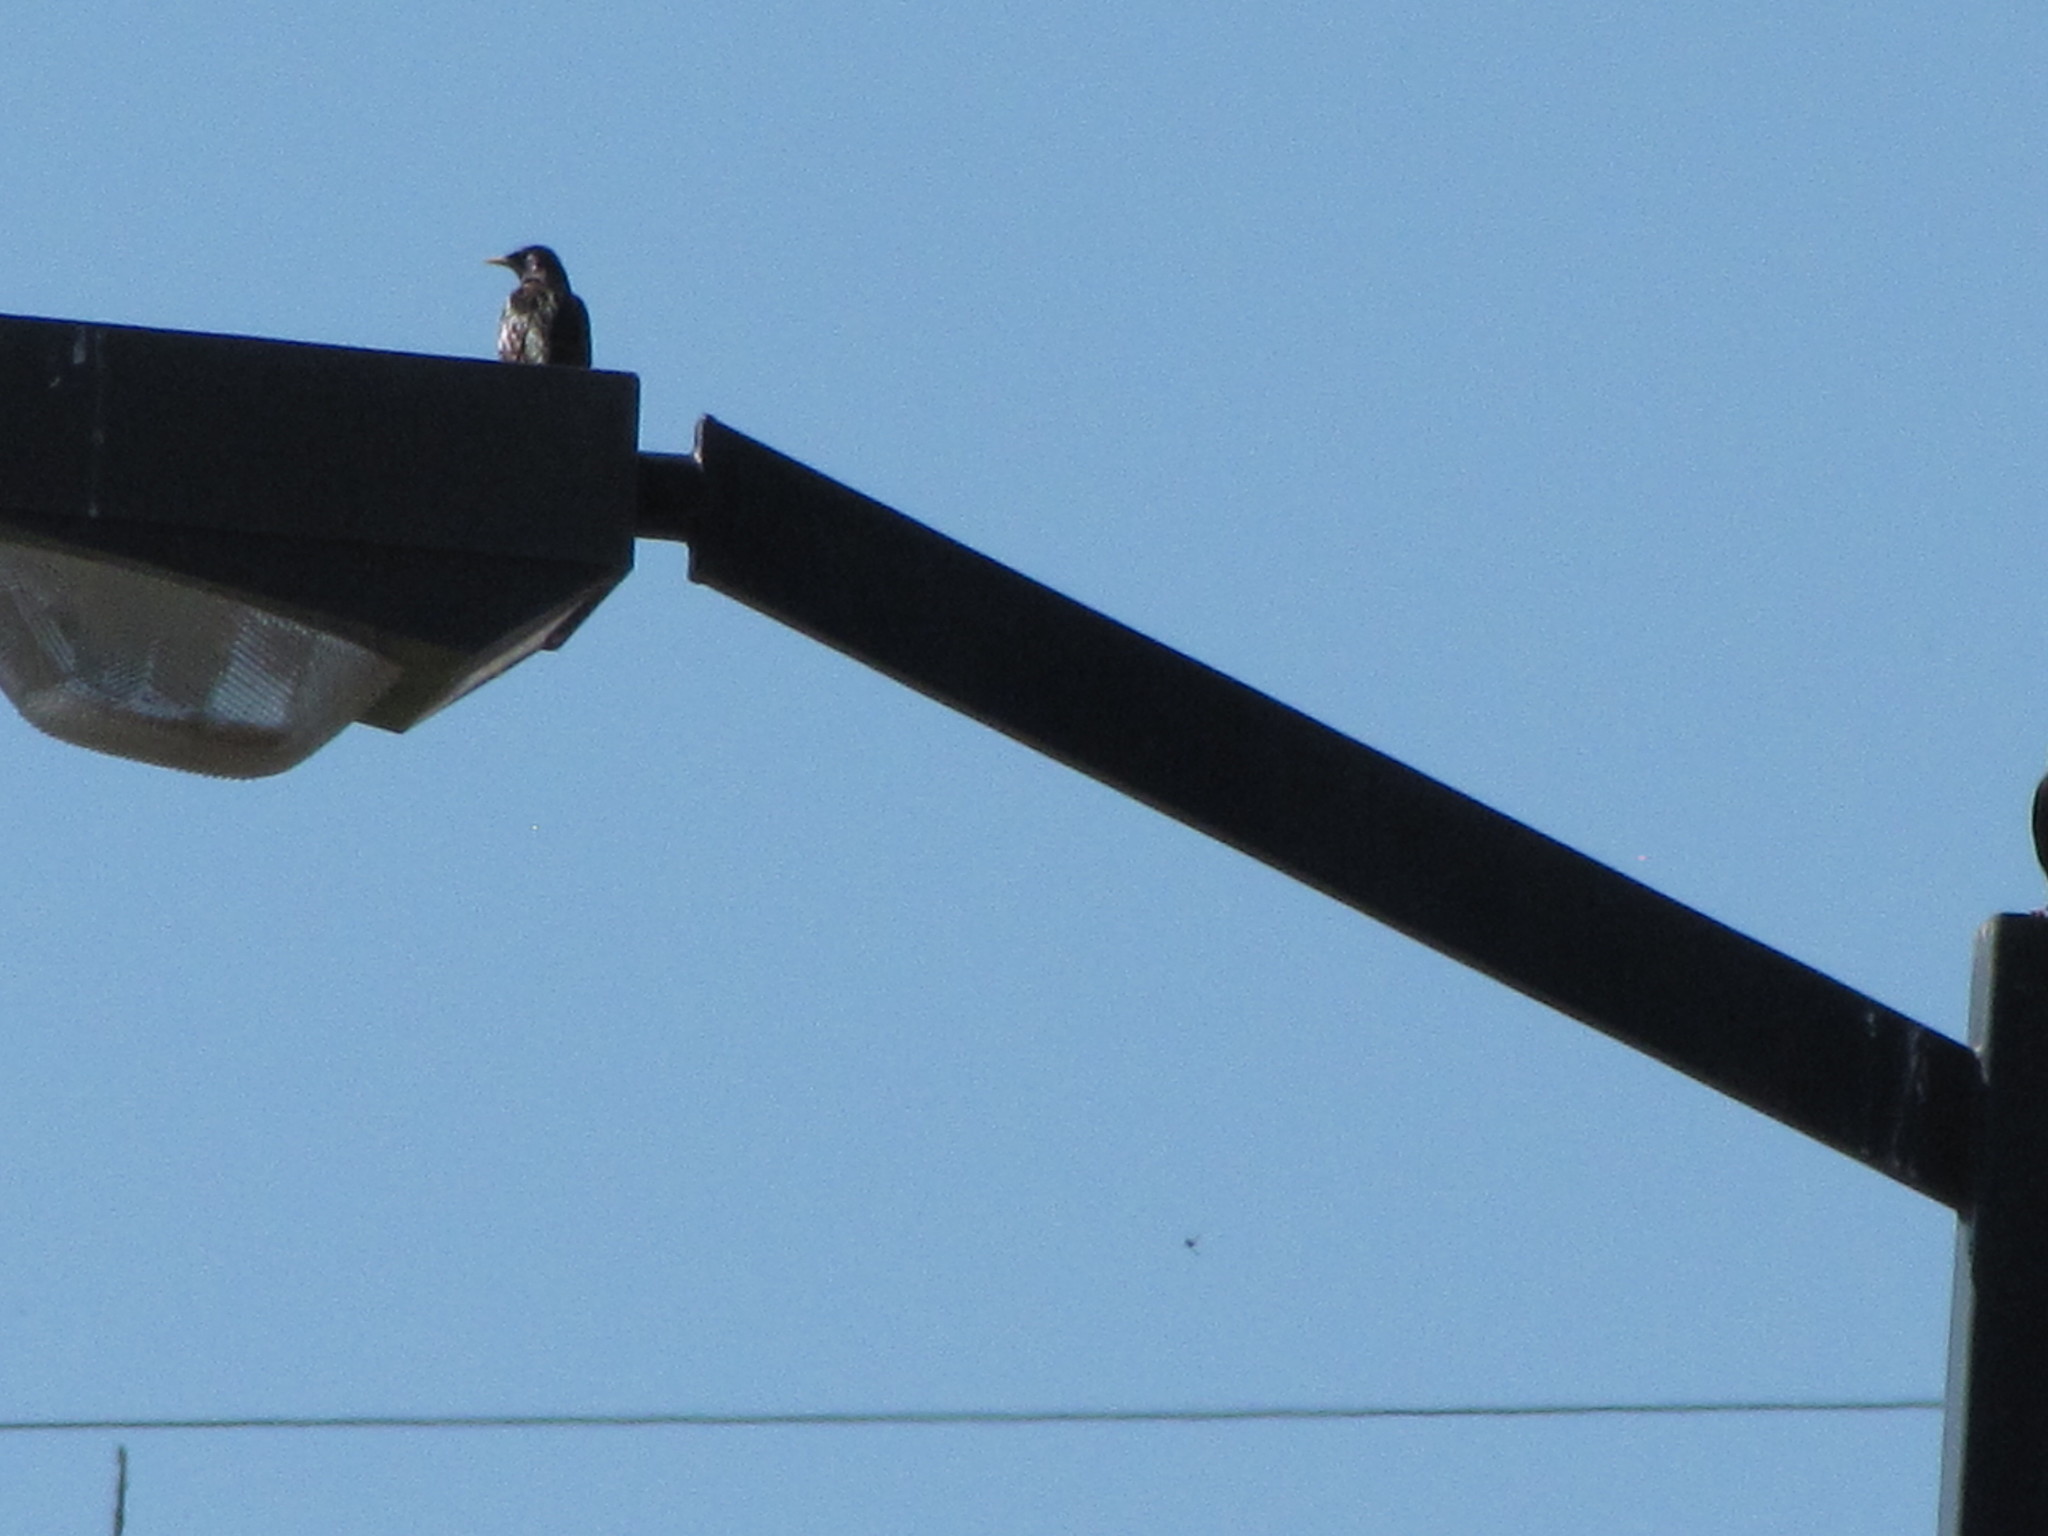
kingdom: Animalia
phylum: Chordata
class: Aves
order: Passeriformes
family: Sturnidae
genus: Sturnus
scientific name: Sturnus vulgaris
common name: Common starling
